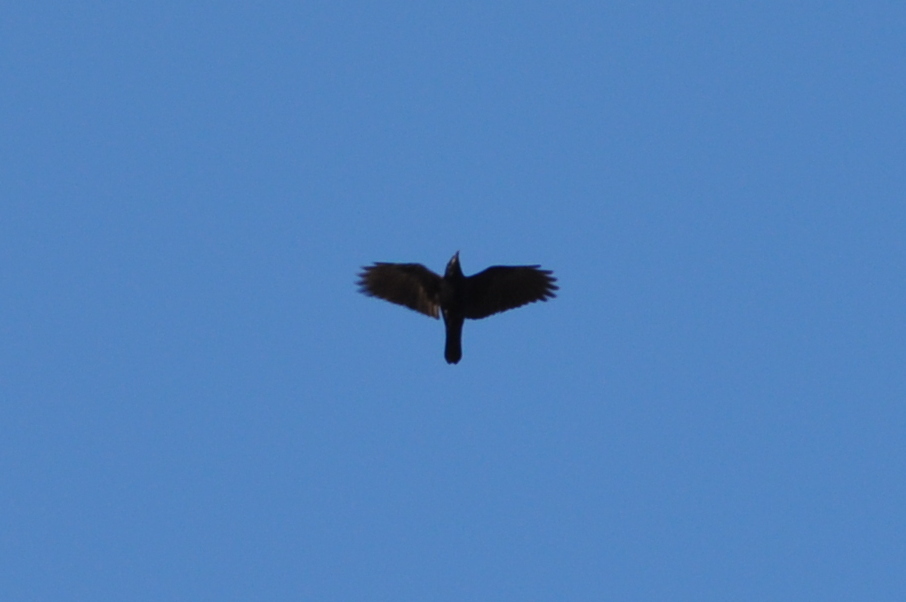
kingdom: Animalia
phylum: Chordata
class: Aves
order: Passeriformes
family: Corvidae
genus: Corvus
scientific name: Corvus frugilegus
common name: Rook
